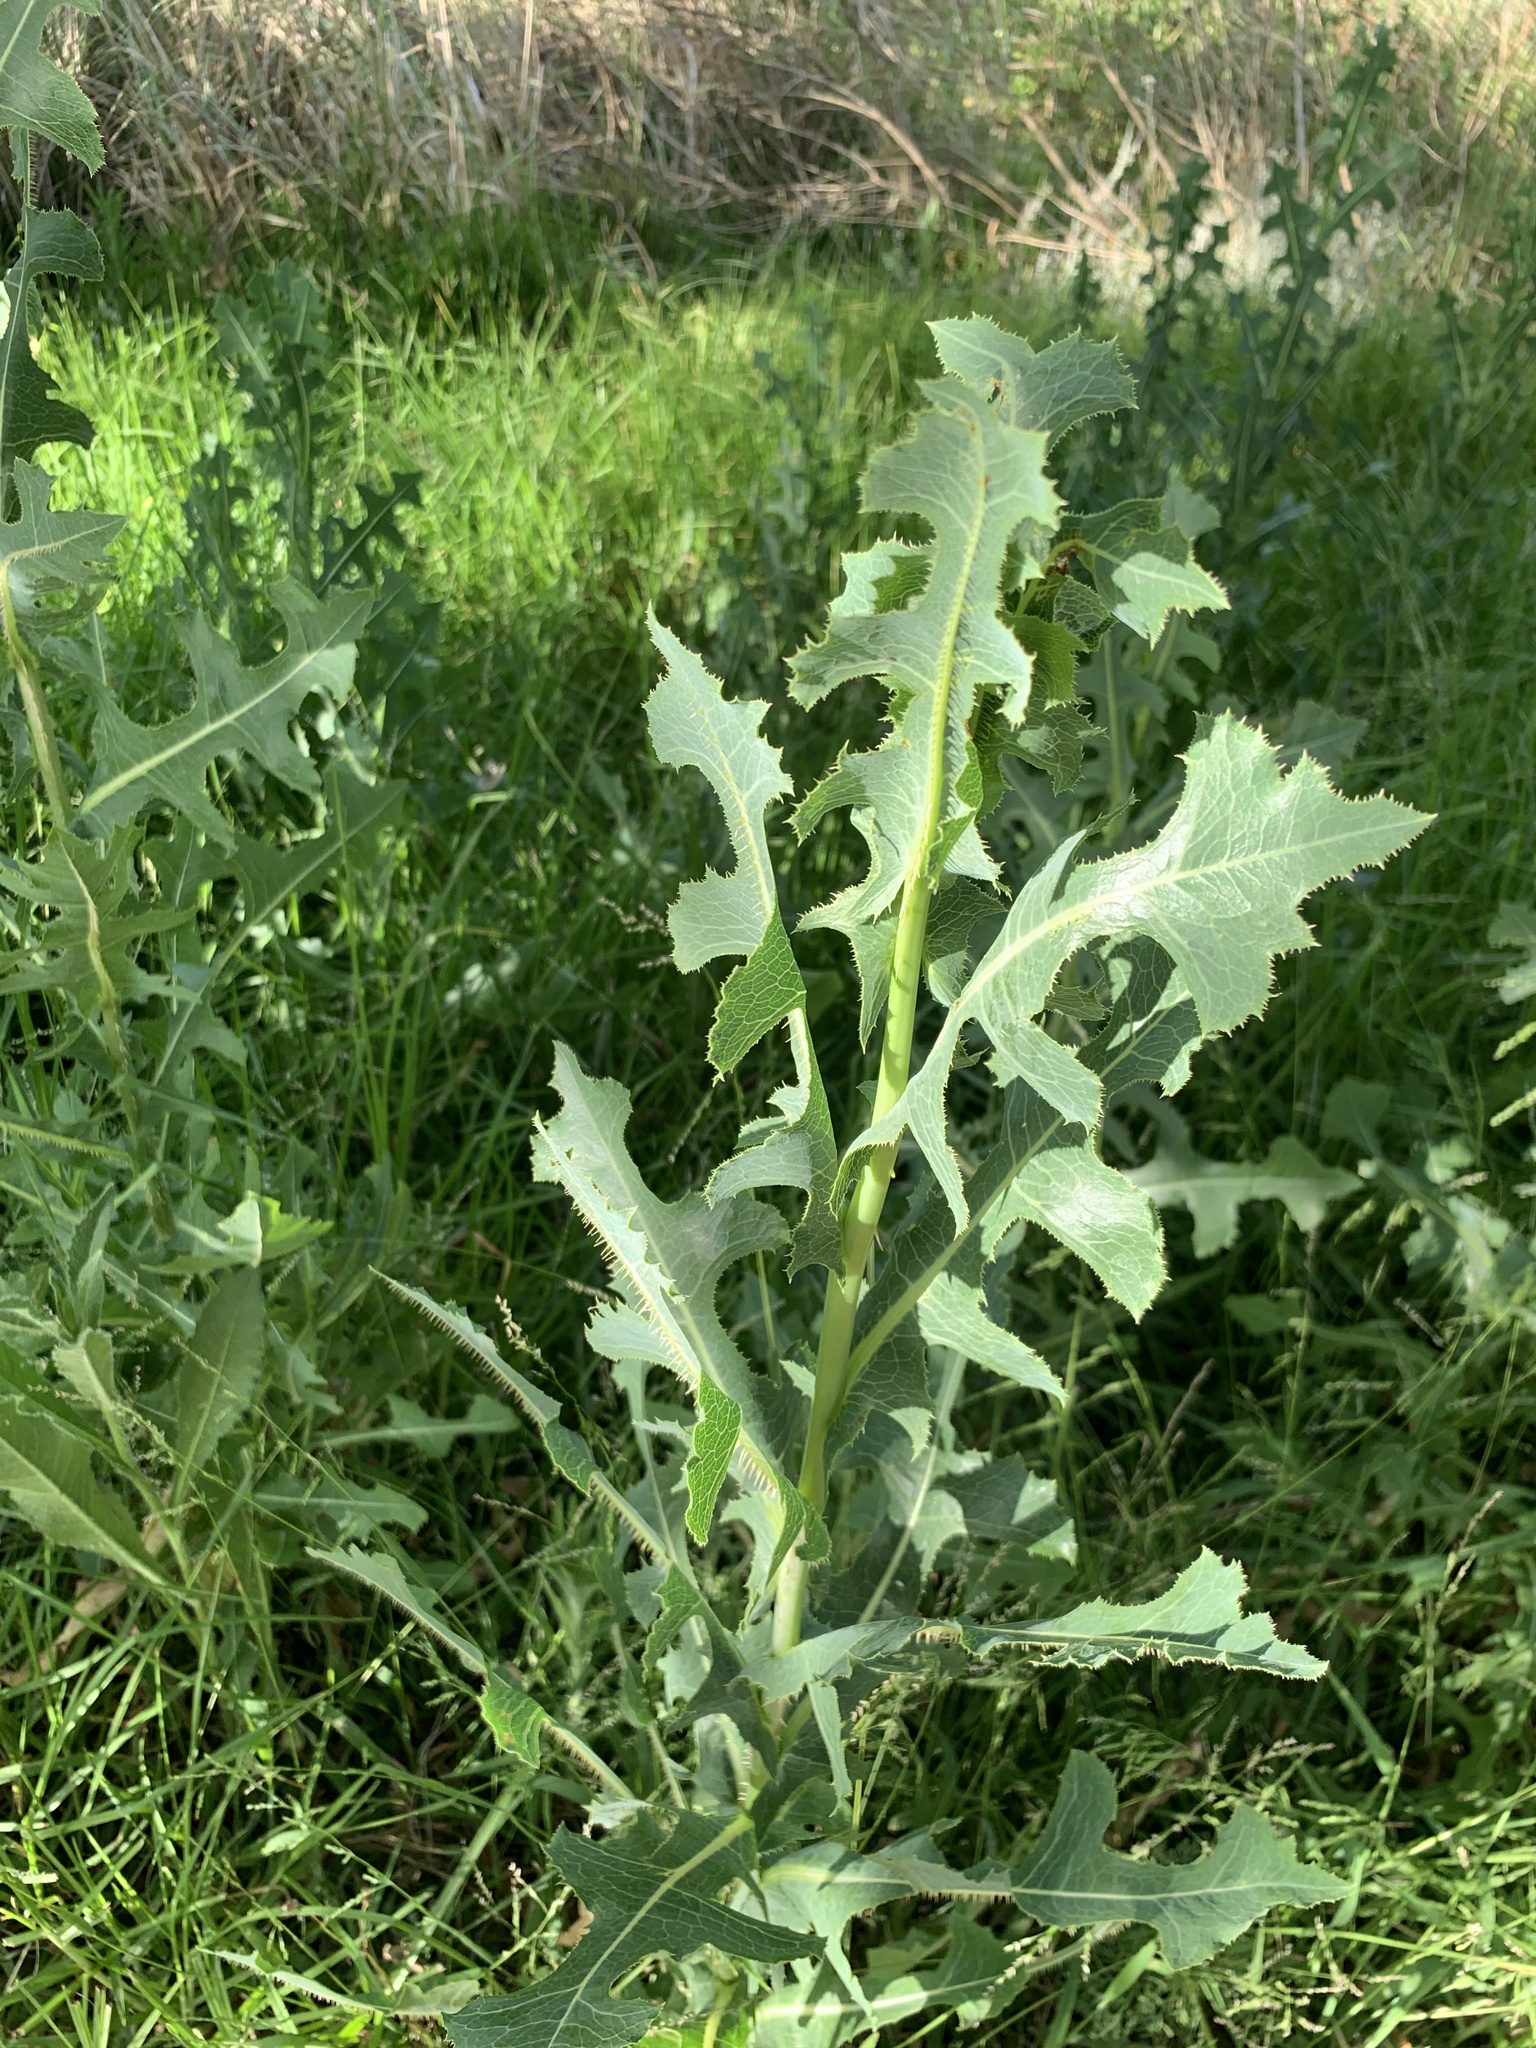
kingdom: Plantae
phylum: Tracheophyta
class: Magnoliopsida
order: Asterales
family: Asteraceae
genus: Lactuca
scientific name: Lactuca serriola
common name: Prickly lettuce
